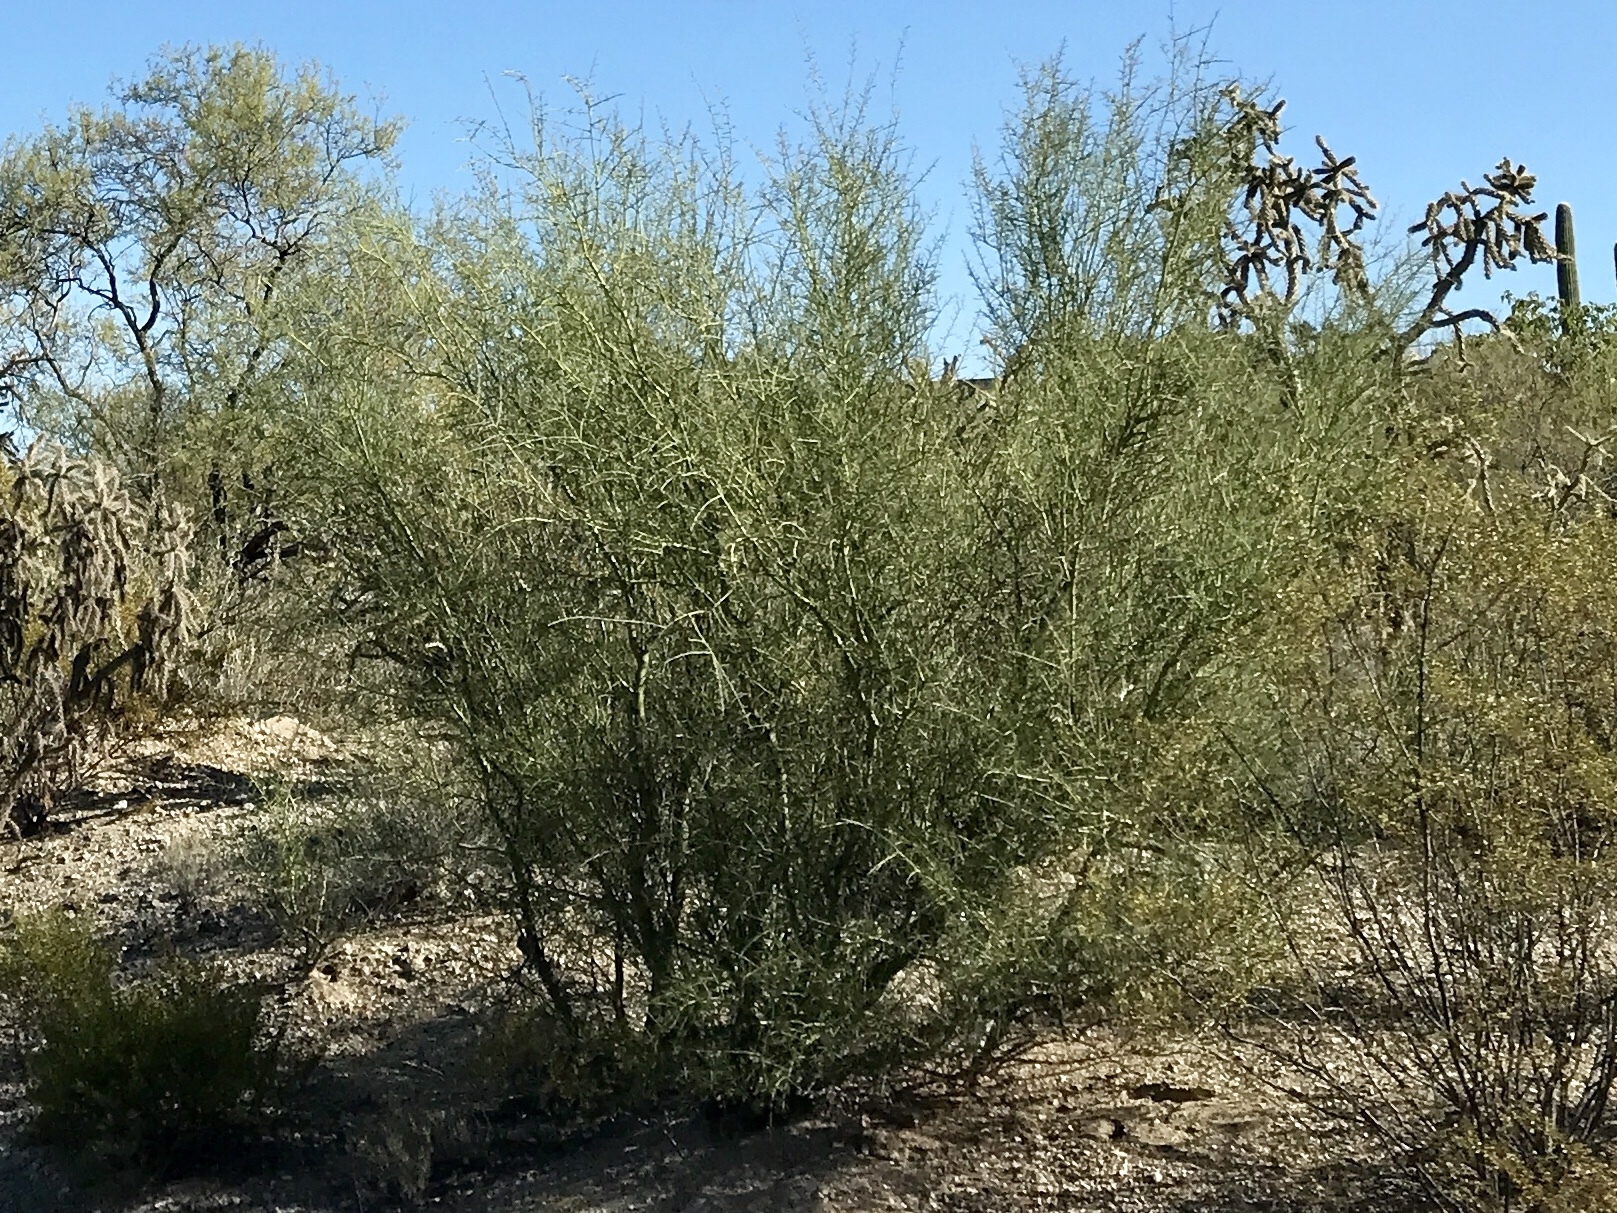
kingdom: Plantae
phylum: Tracheophyta
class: Magnoliopsida
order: Fabales
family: Fabaceae
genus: Parkinsonia
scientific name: Parkinsonia florida
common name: Blue paloverde
